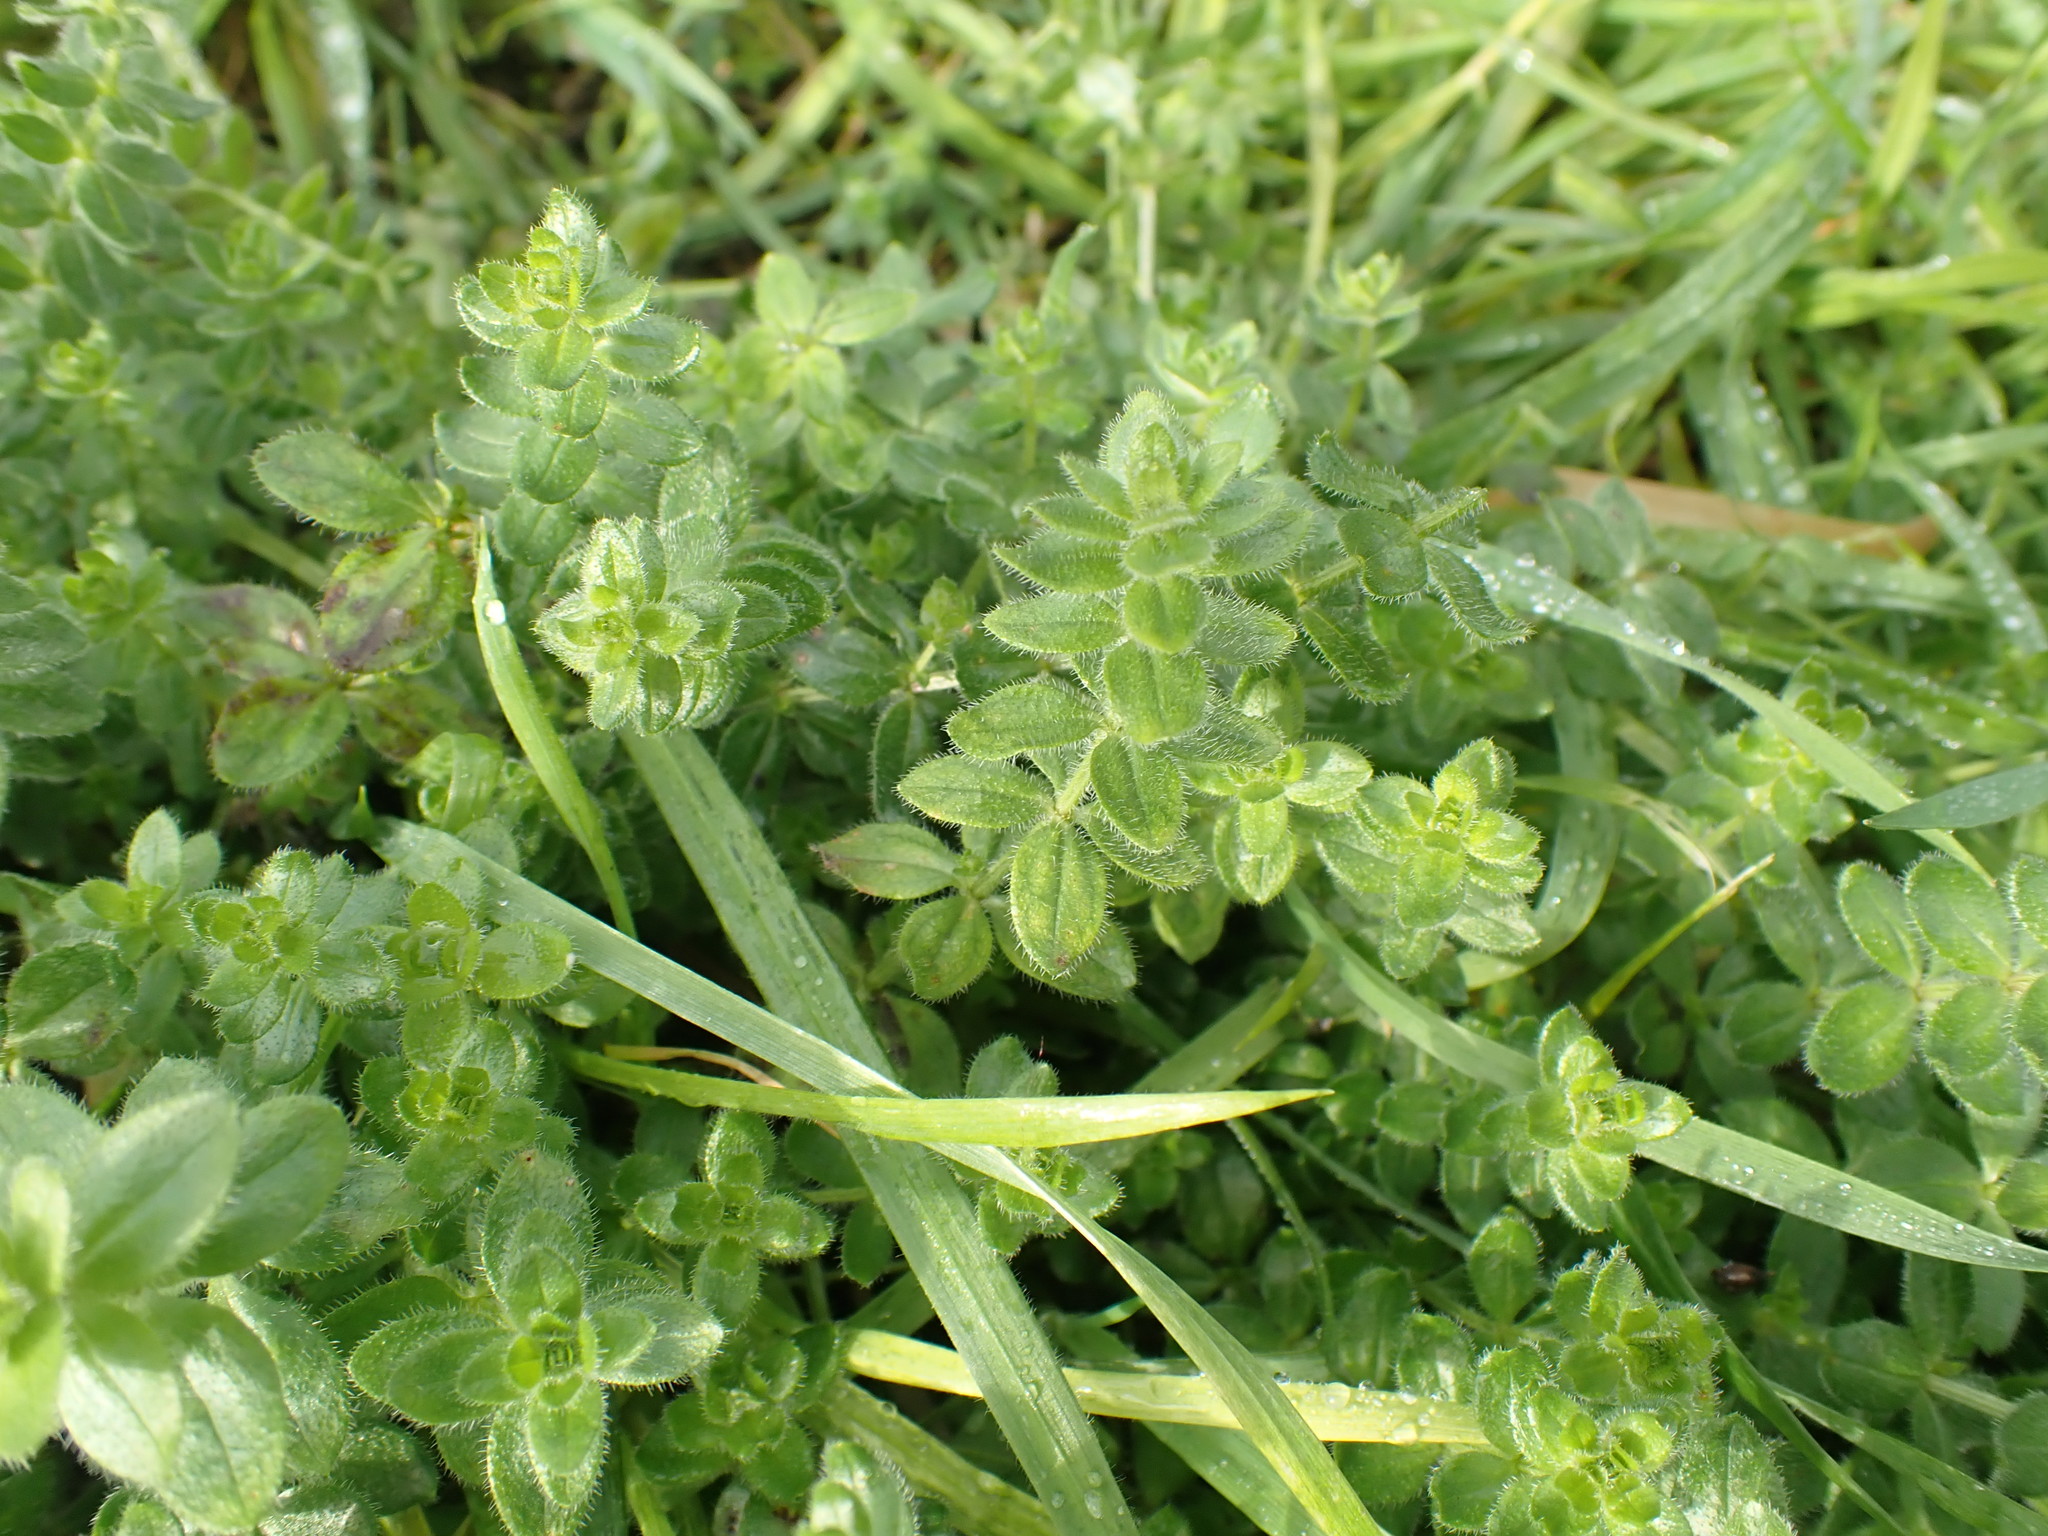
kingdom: Plantae
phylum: Tracheophyta
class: Magnoliopsida
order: Gentianales
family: Rubiaceae
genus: Cruciata
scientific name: Cruciata laevipes
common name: Crosswort
